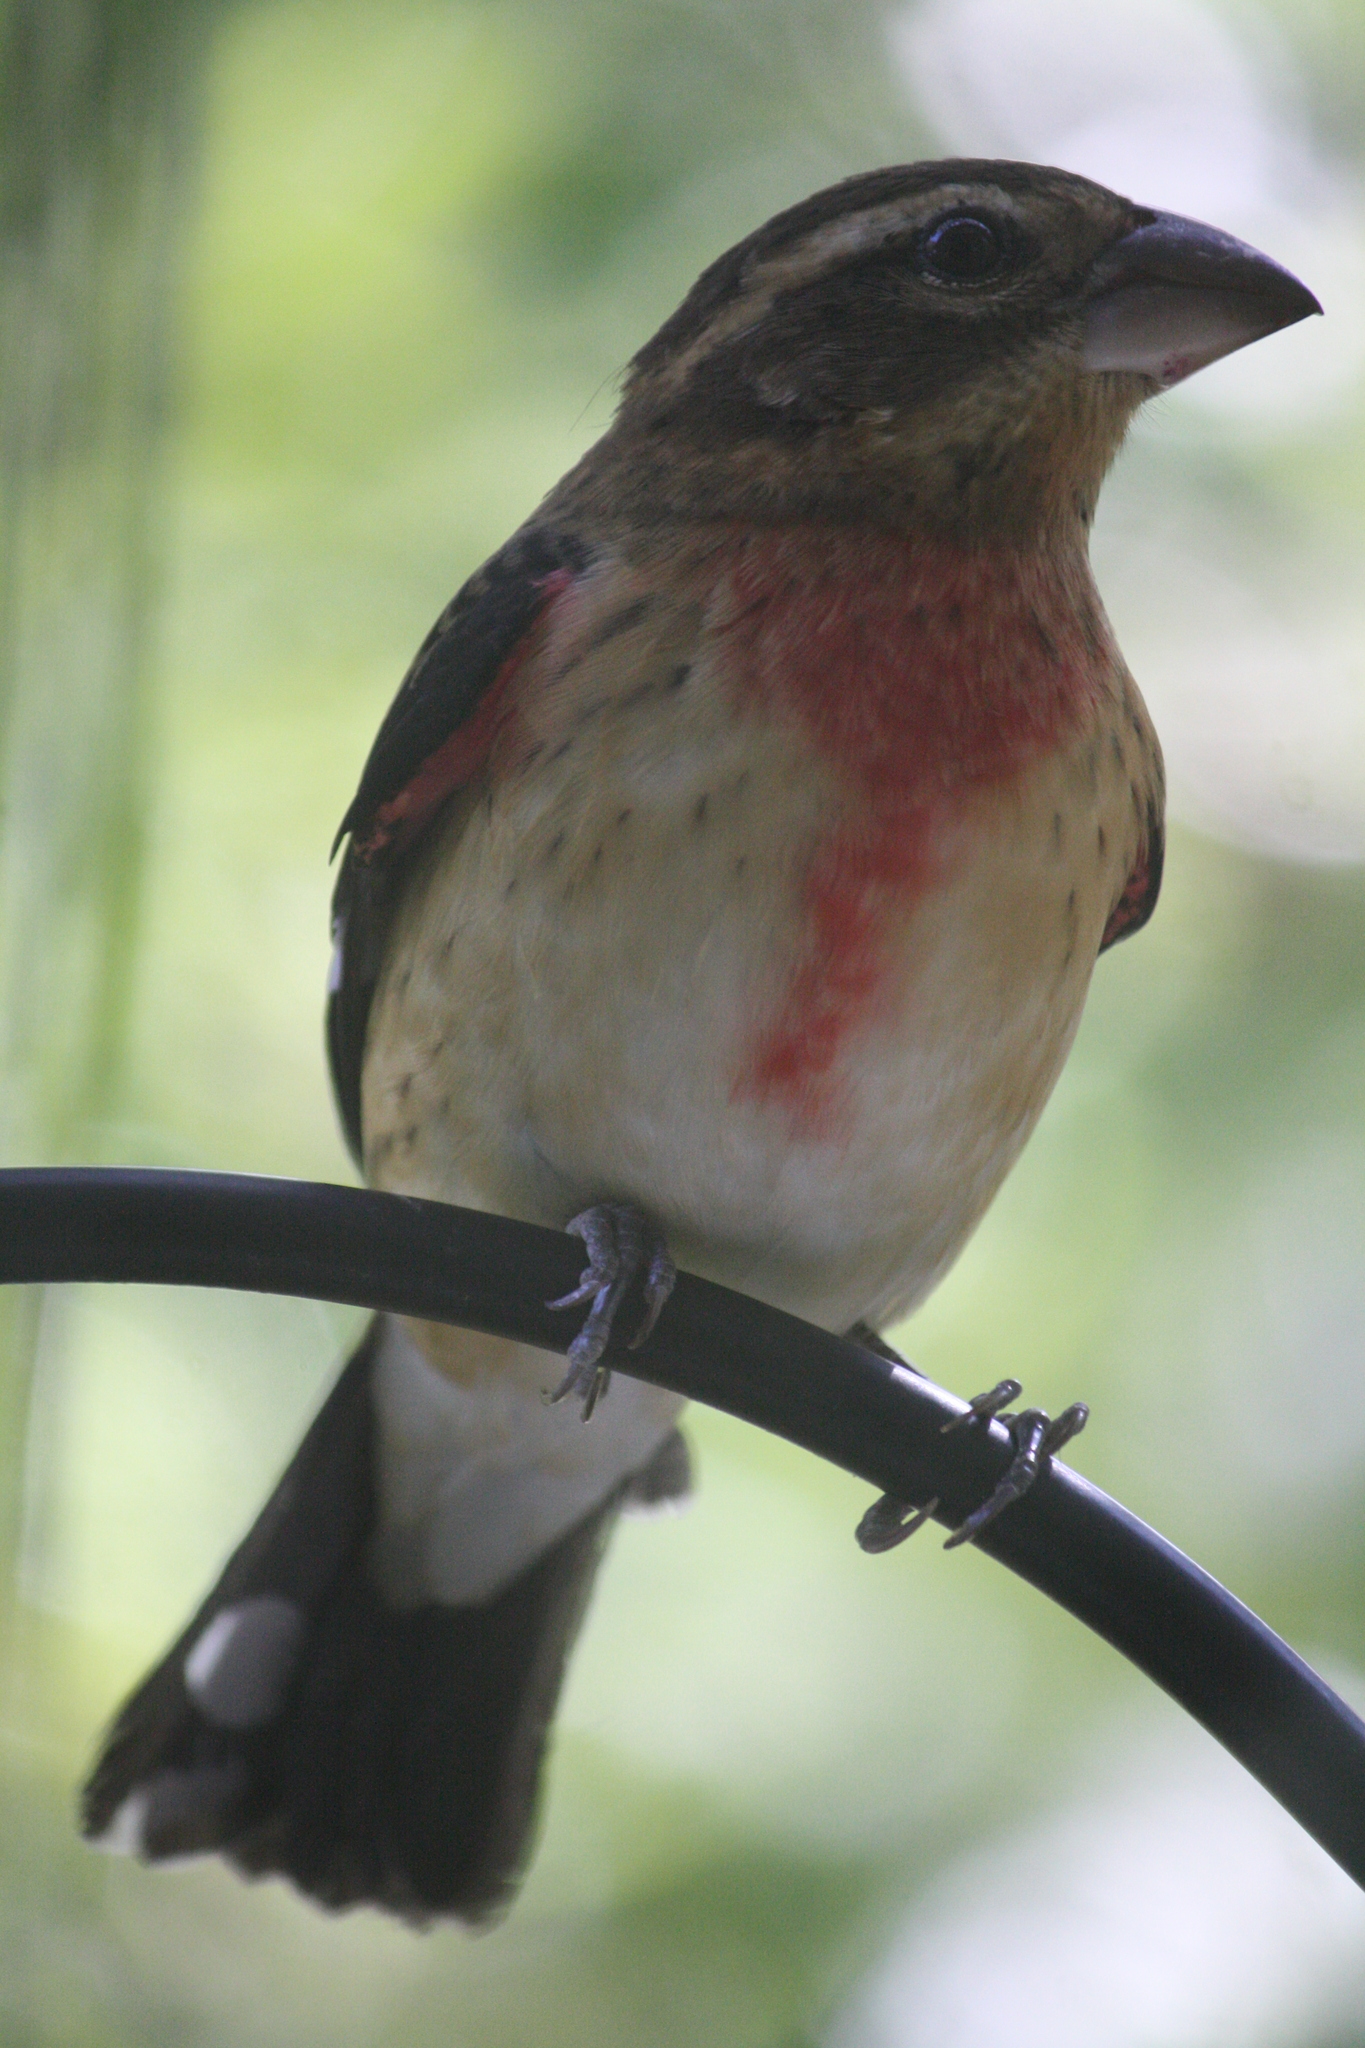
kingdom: Animalia
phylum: Chordata
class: Aves
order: Passeriformes
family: Cardinalidae
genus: Pheucticus
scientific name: Pheucticus ludovicianus
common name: Rose-breasted grosbeak
